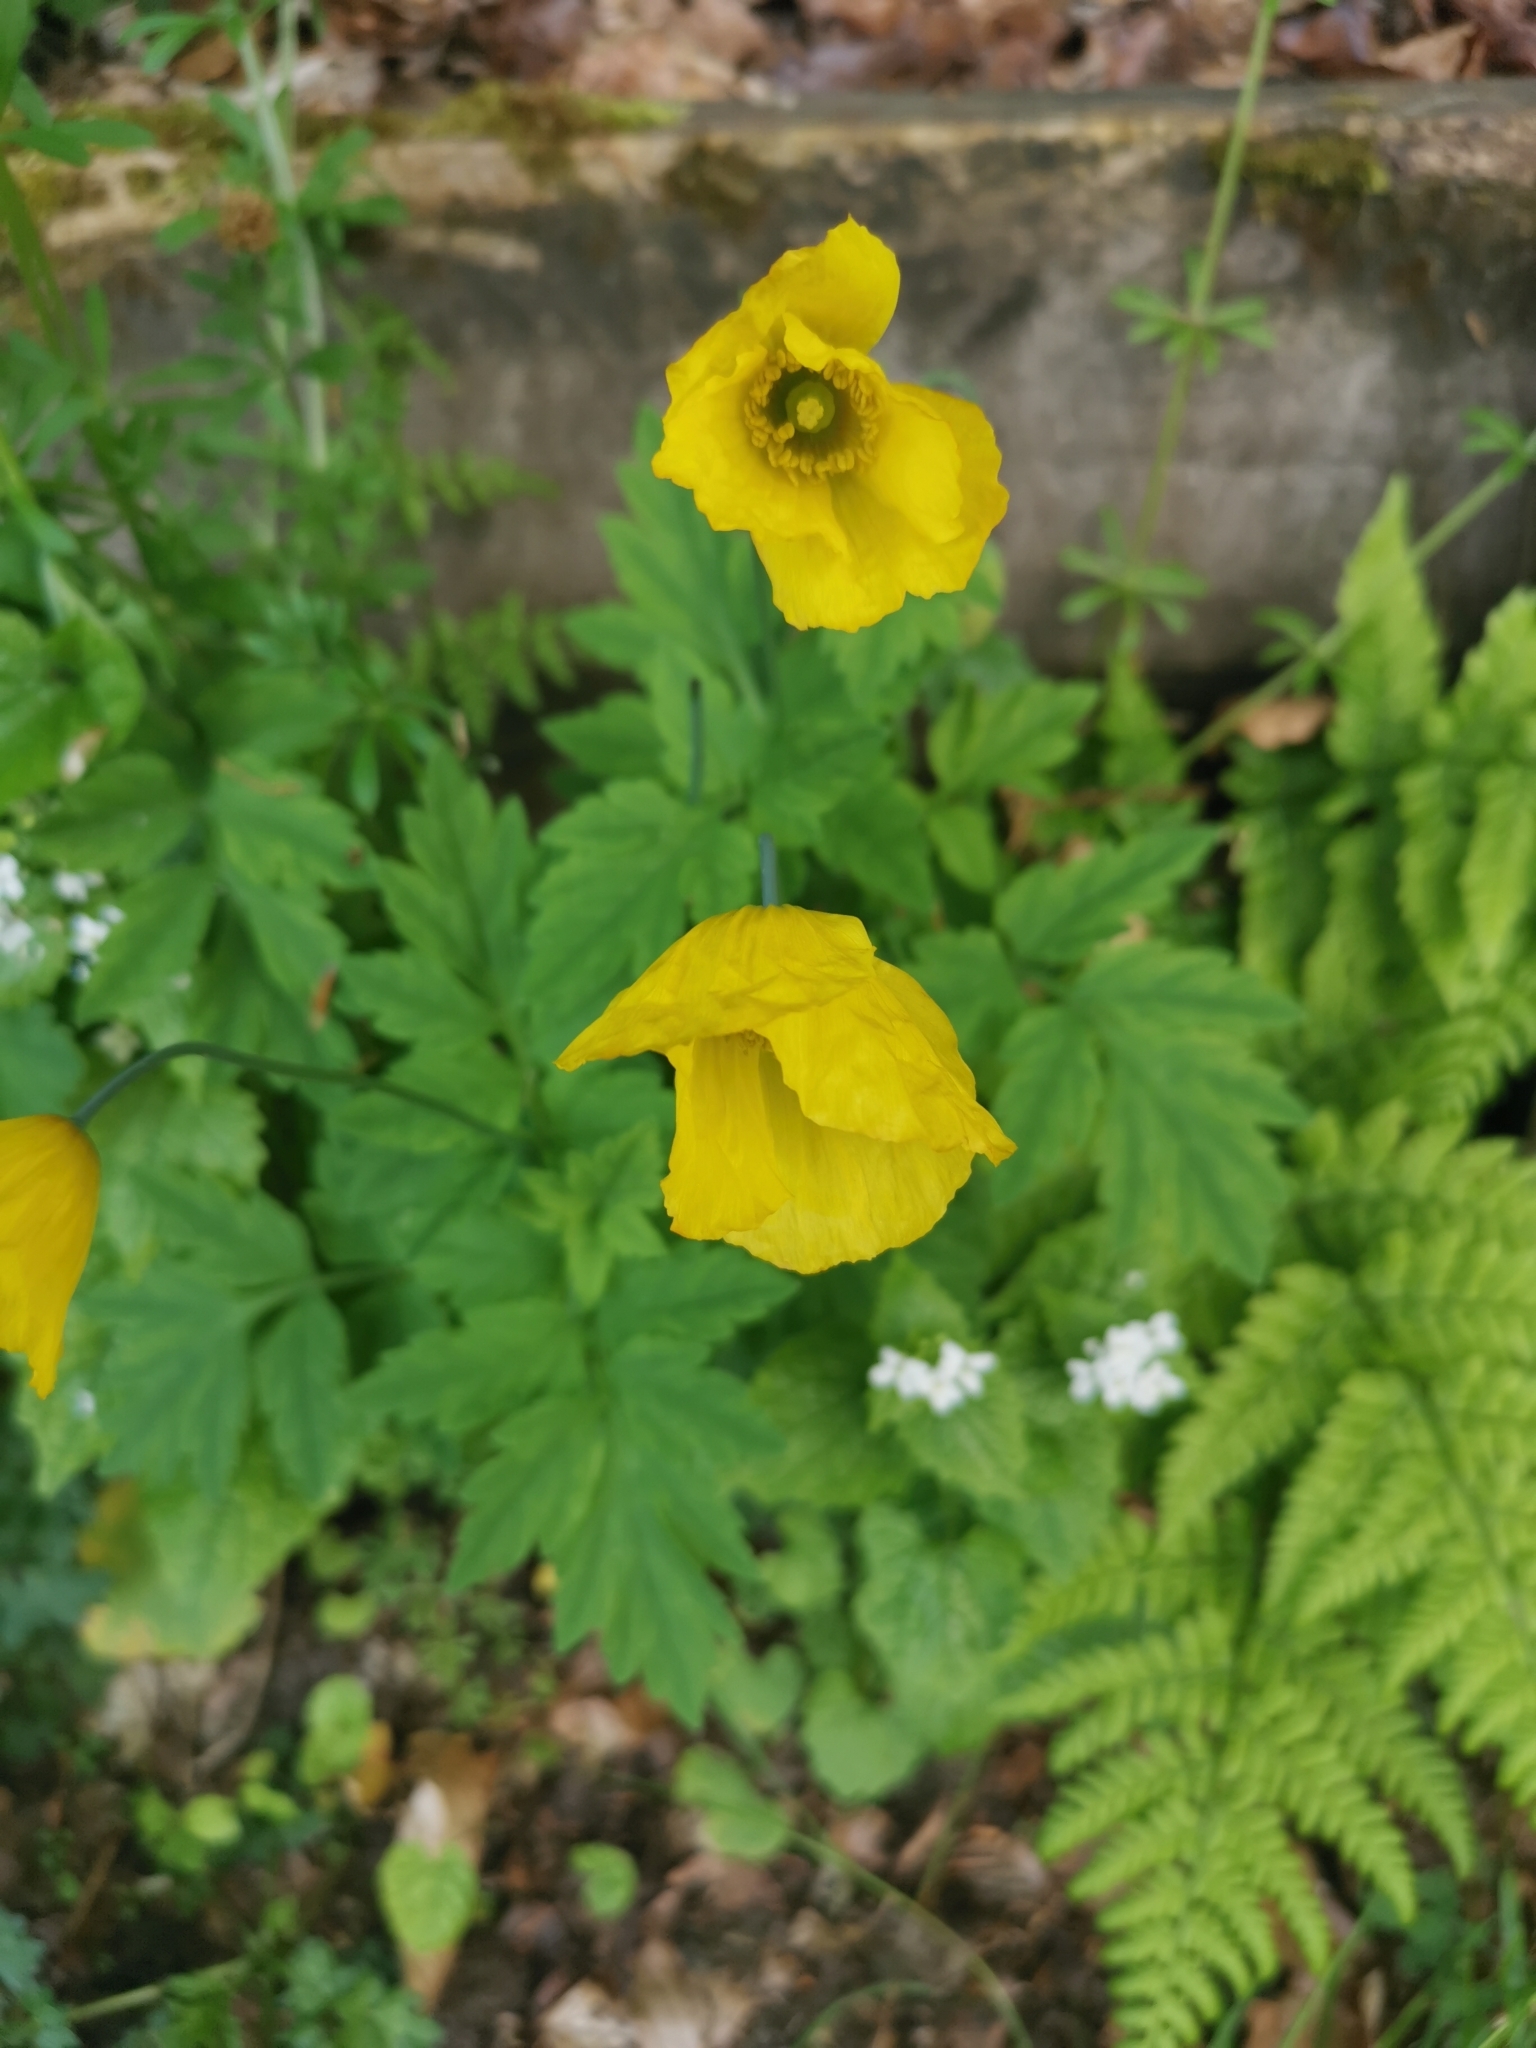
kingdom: Plantae
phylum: Tracheophyta
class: Magnoliopsida
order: Ranunculales
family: Papaveraceae
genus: Papaver
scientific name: Papaver cambricum
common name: Poppy
